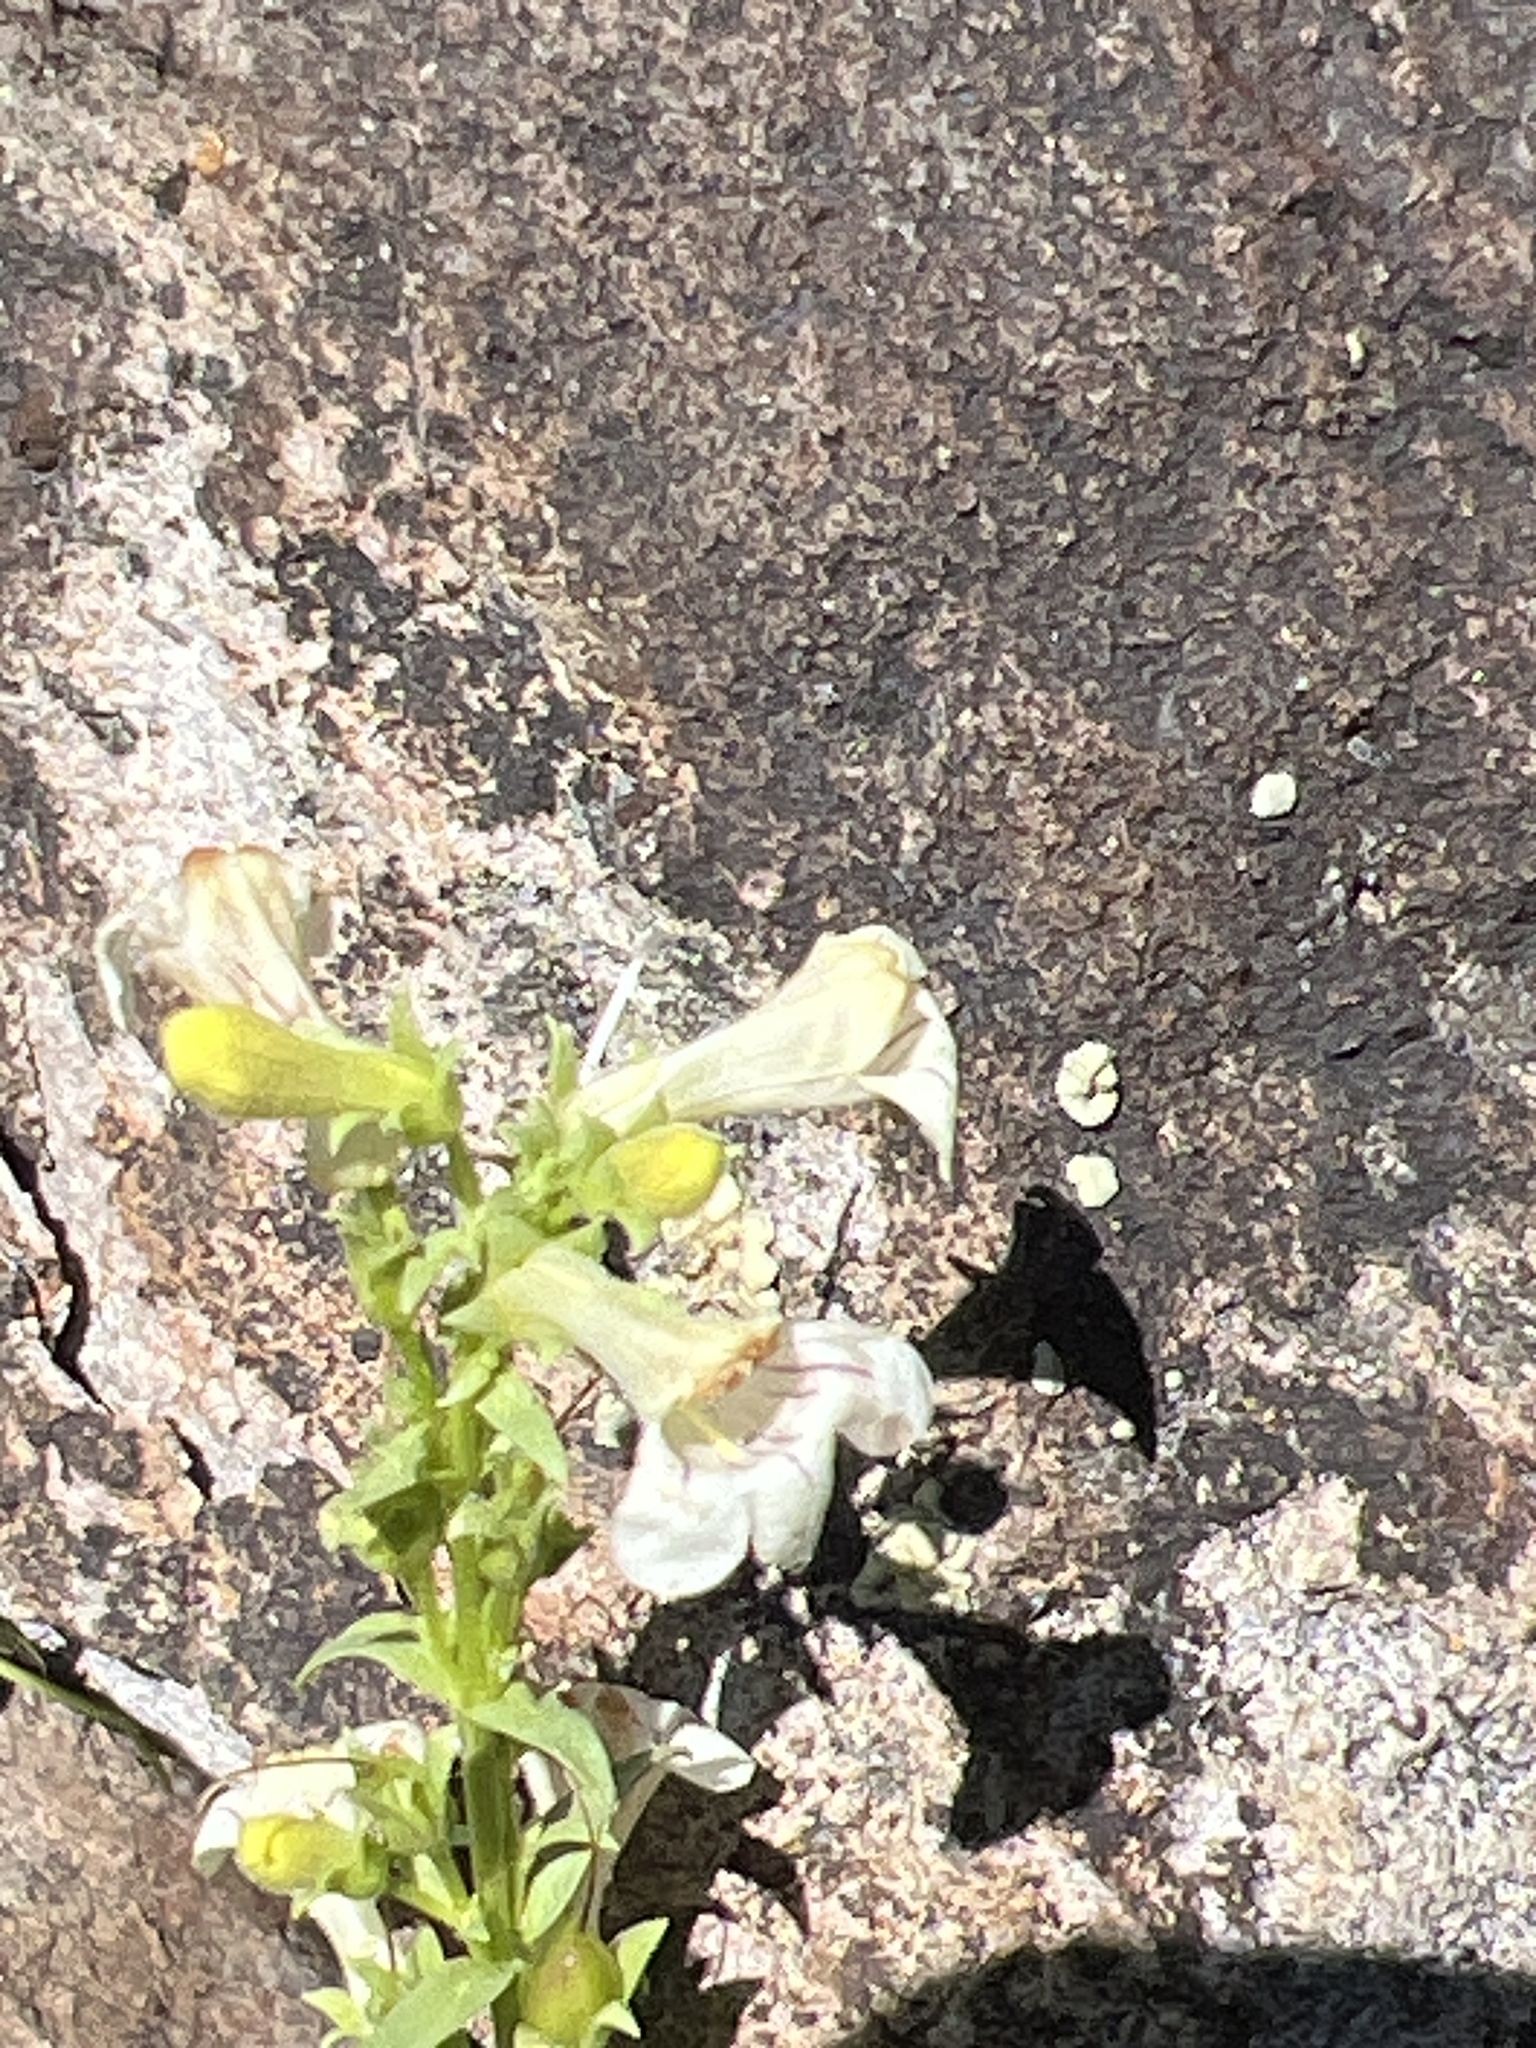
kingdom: Plantae
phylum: Tracheophyta
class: Magnoliopsida
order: Lamiales
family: Plantaginaceae
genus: Penstemon
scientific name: Penstemon deustus
